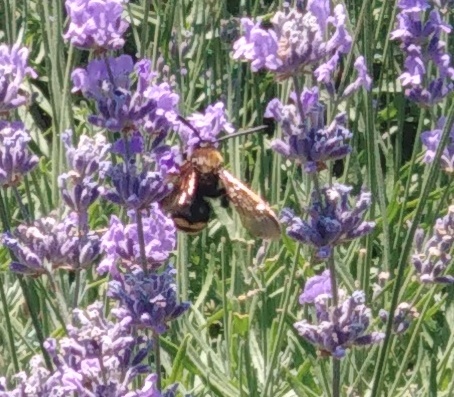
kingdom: Animalia
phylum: Arthropoda
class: Insecta
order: Hymenoptera
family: Scoliidae
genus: Megascolia
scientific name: Megascolia maculata
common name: Mammoth wasp
